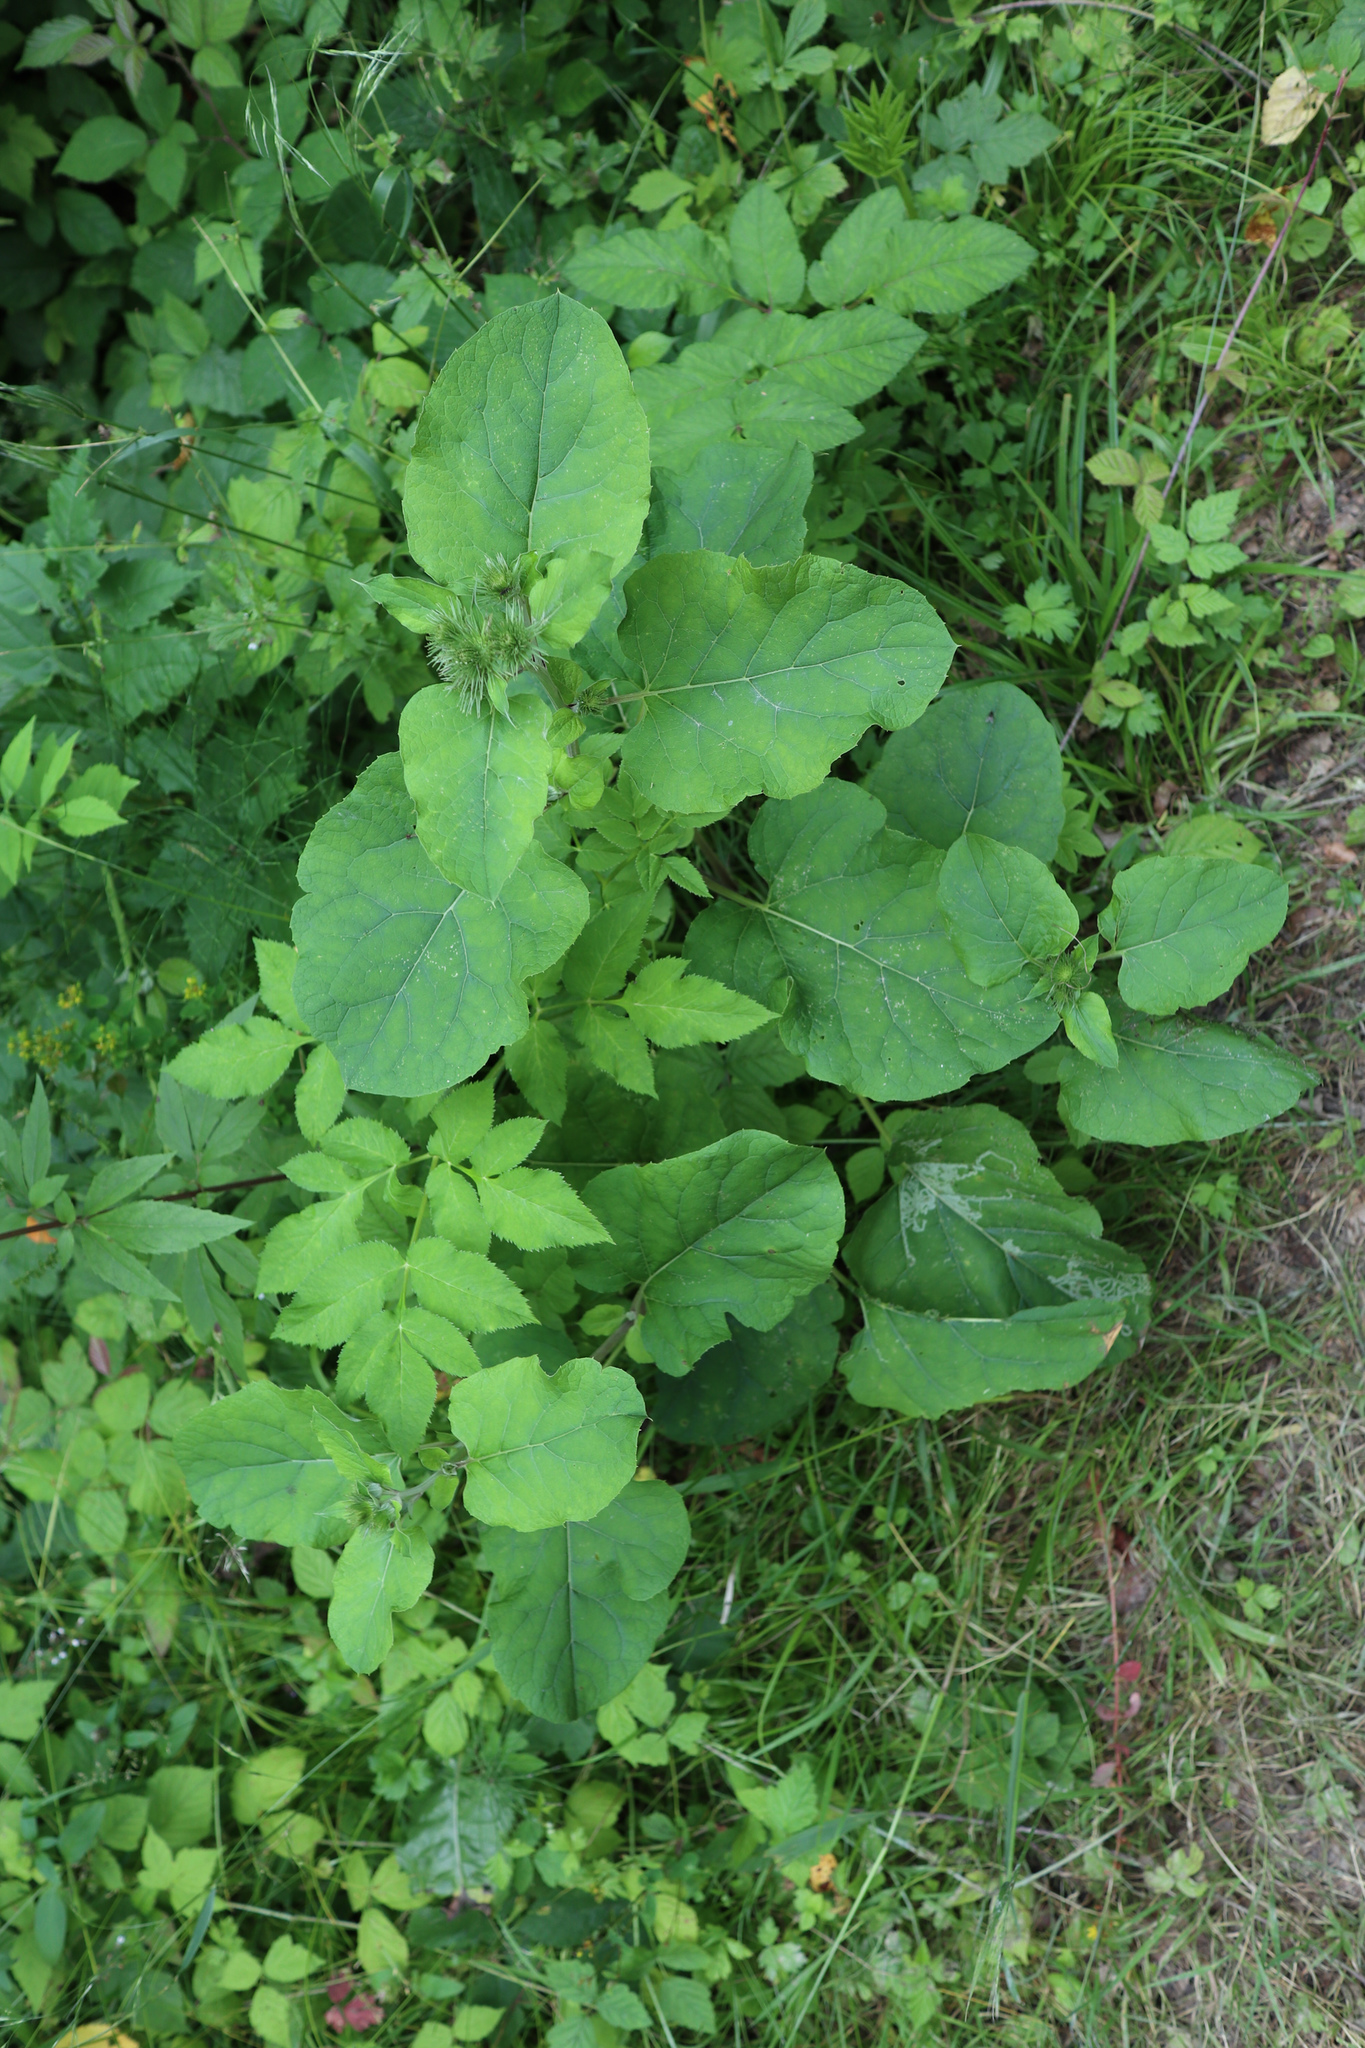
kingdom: Plantae
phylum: Tracheophyta
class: Magnoliopsida
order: Asterales
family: Asteraceae
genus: Arctium
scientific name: Arctium lappa
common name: Greater burdock
